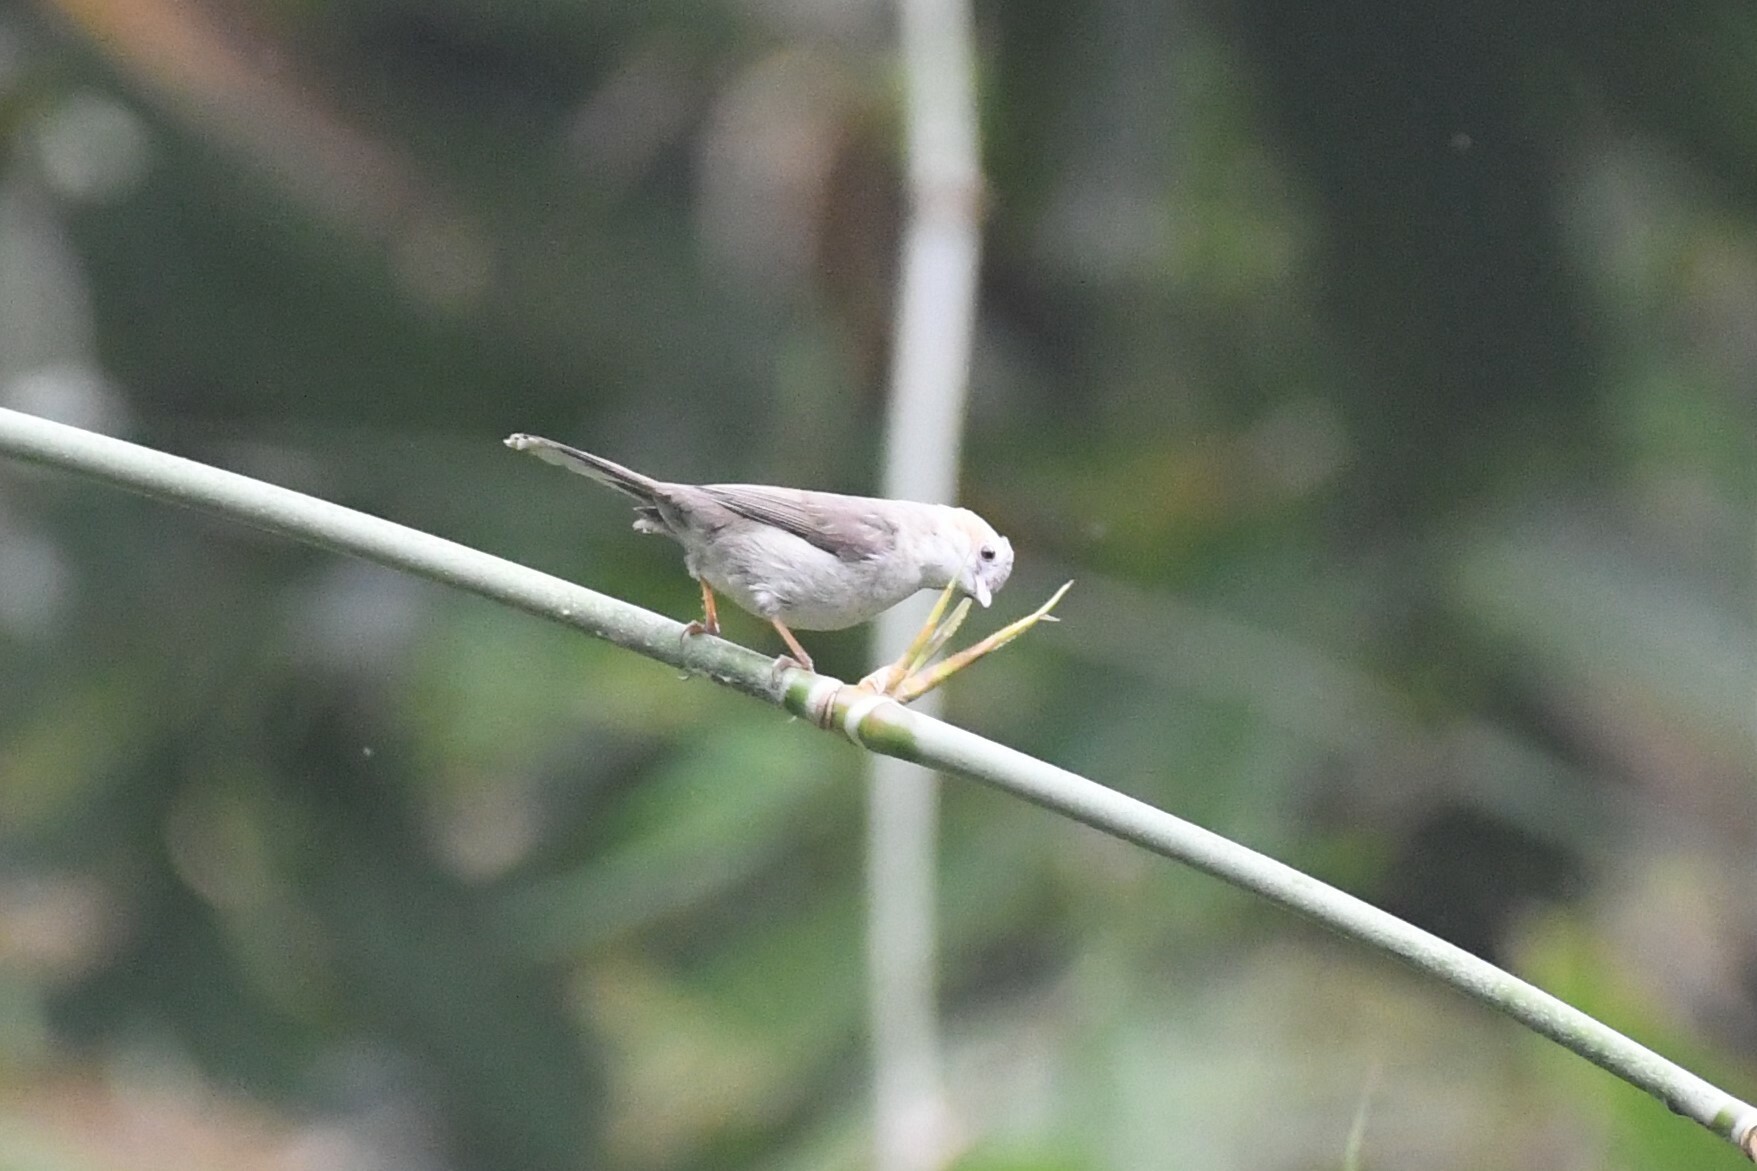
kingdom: Animalia
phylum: Chordata
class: Aves
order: Passeriformes
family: Zosteropidae
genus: Staphida
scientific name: Staphida castaniceps
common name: Striated yuhina
